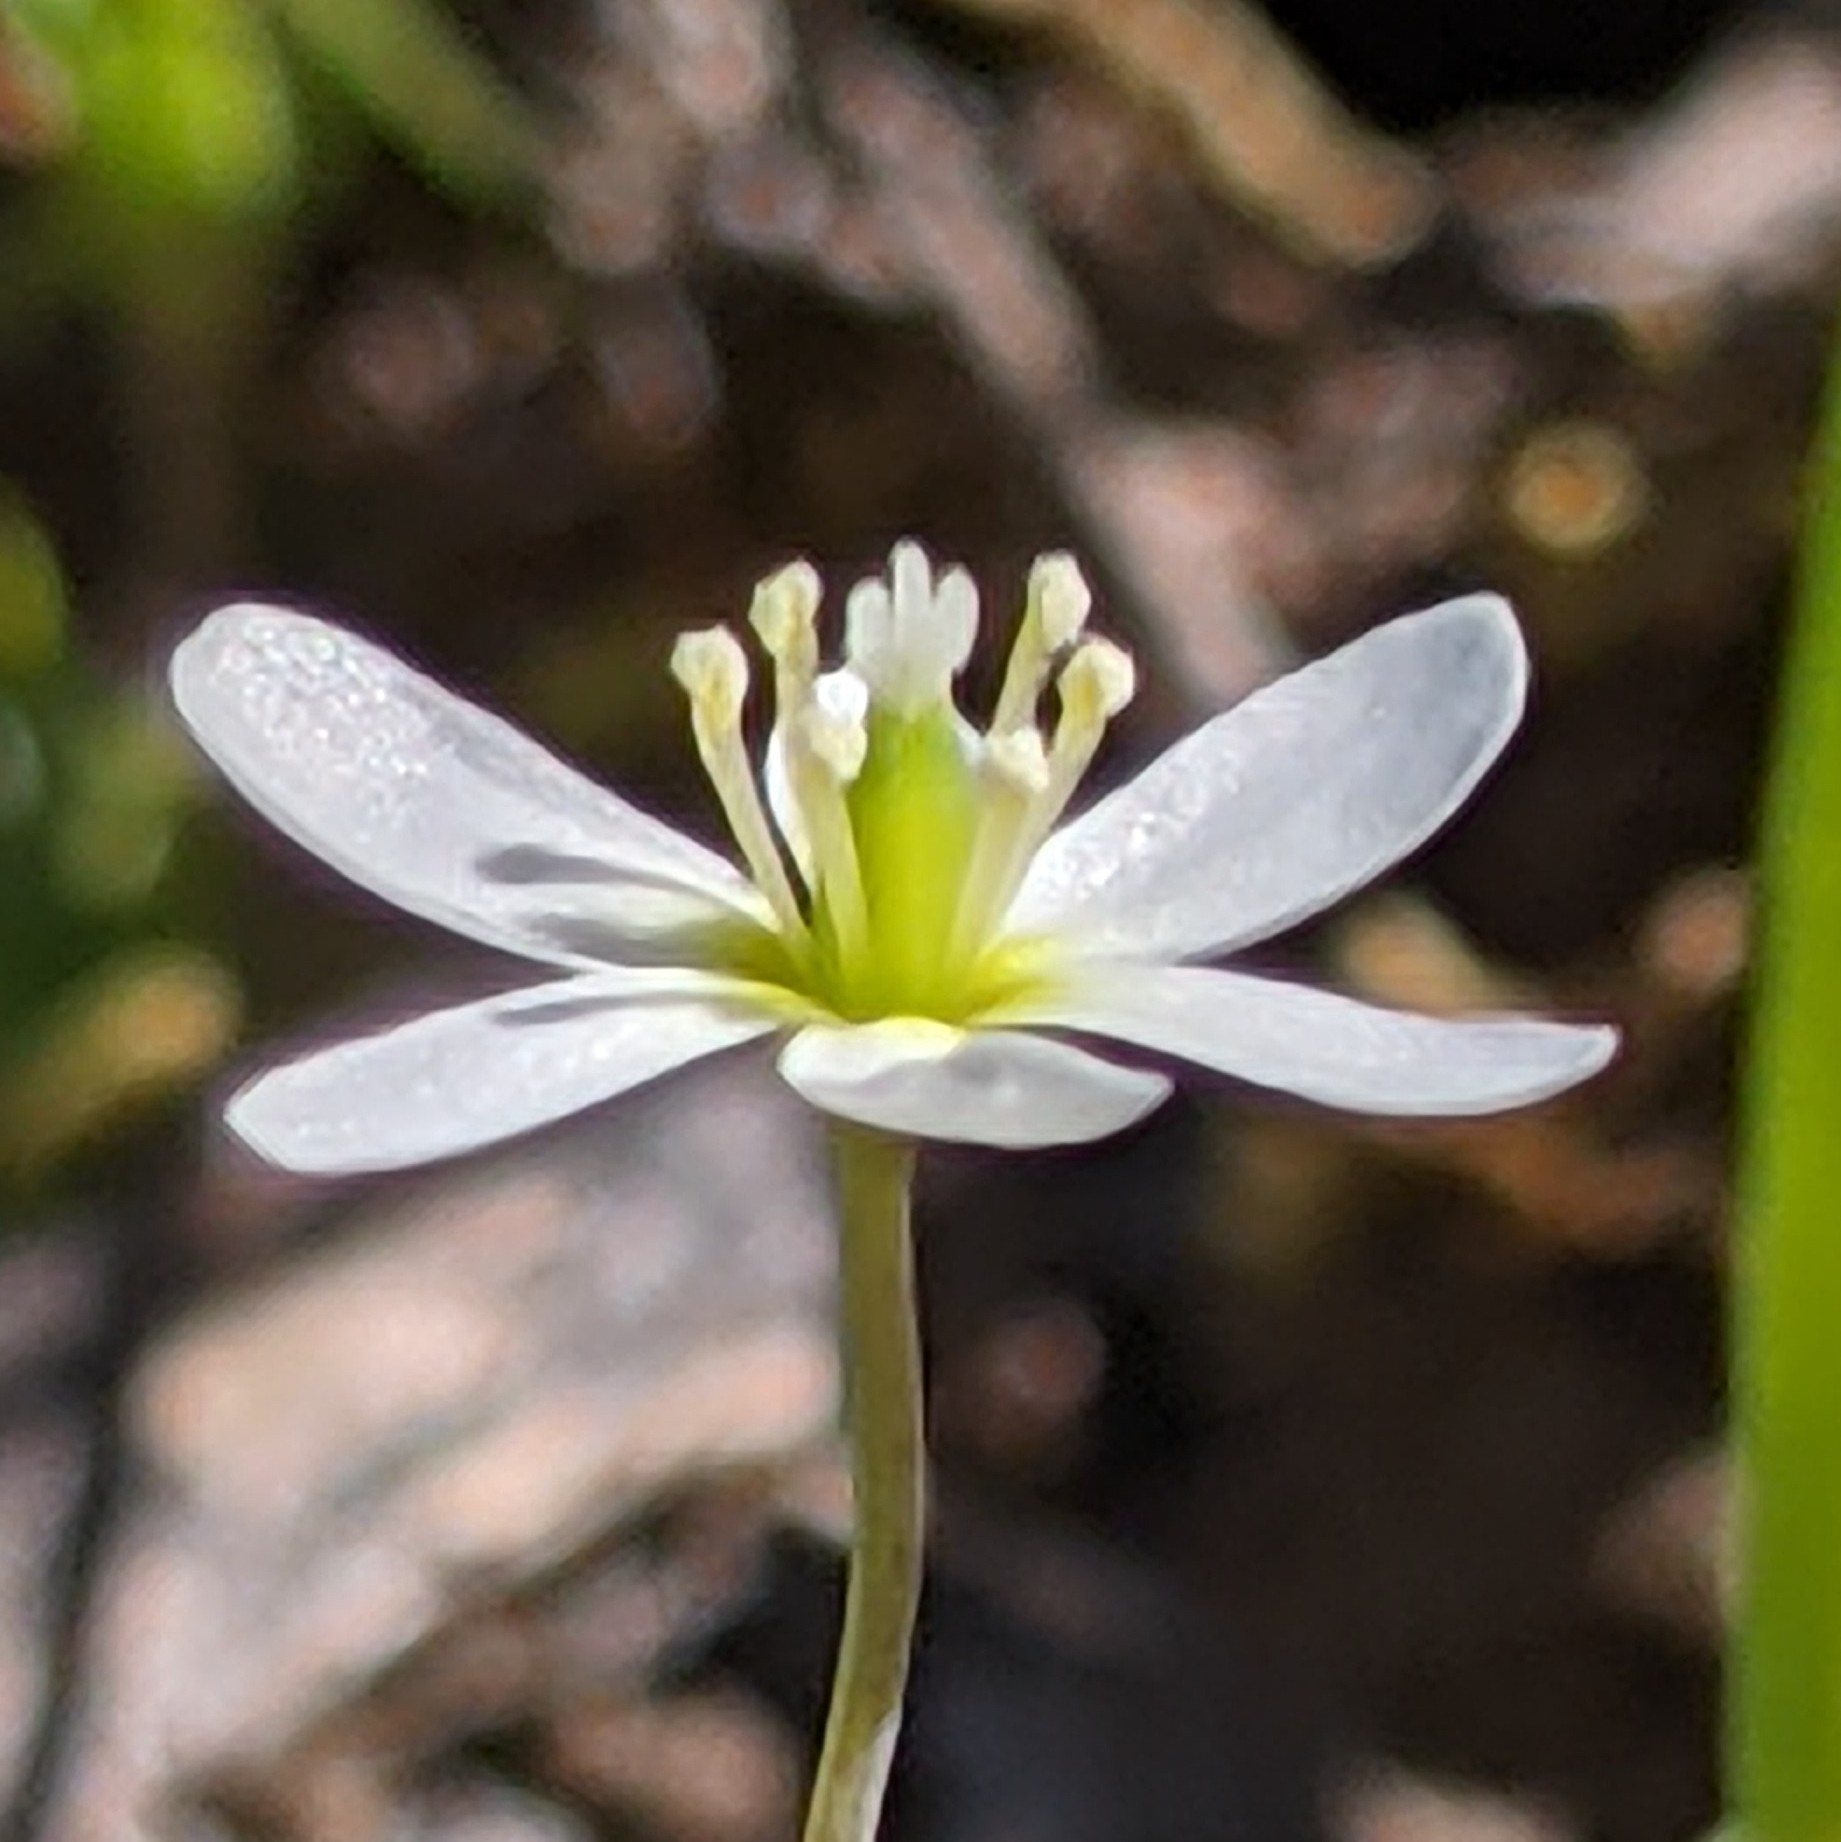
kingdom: Plantae
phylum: Tracheophyta
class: Magnoliopsida
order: Ranunculales
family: Papaveraceae
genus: Meconella
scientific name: Meconella oregana
